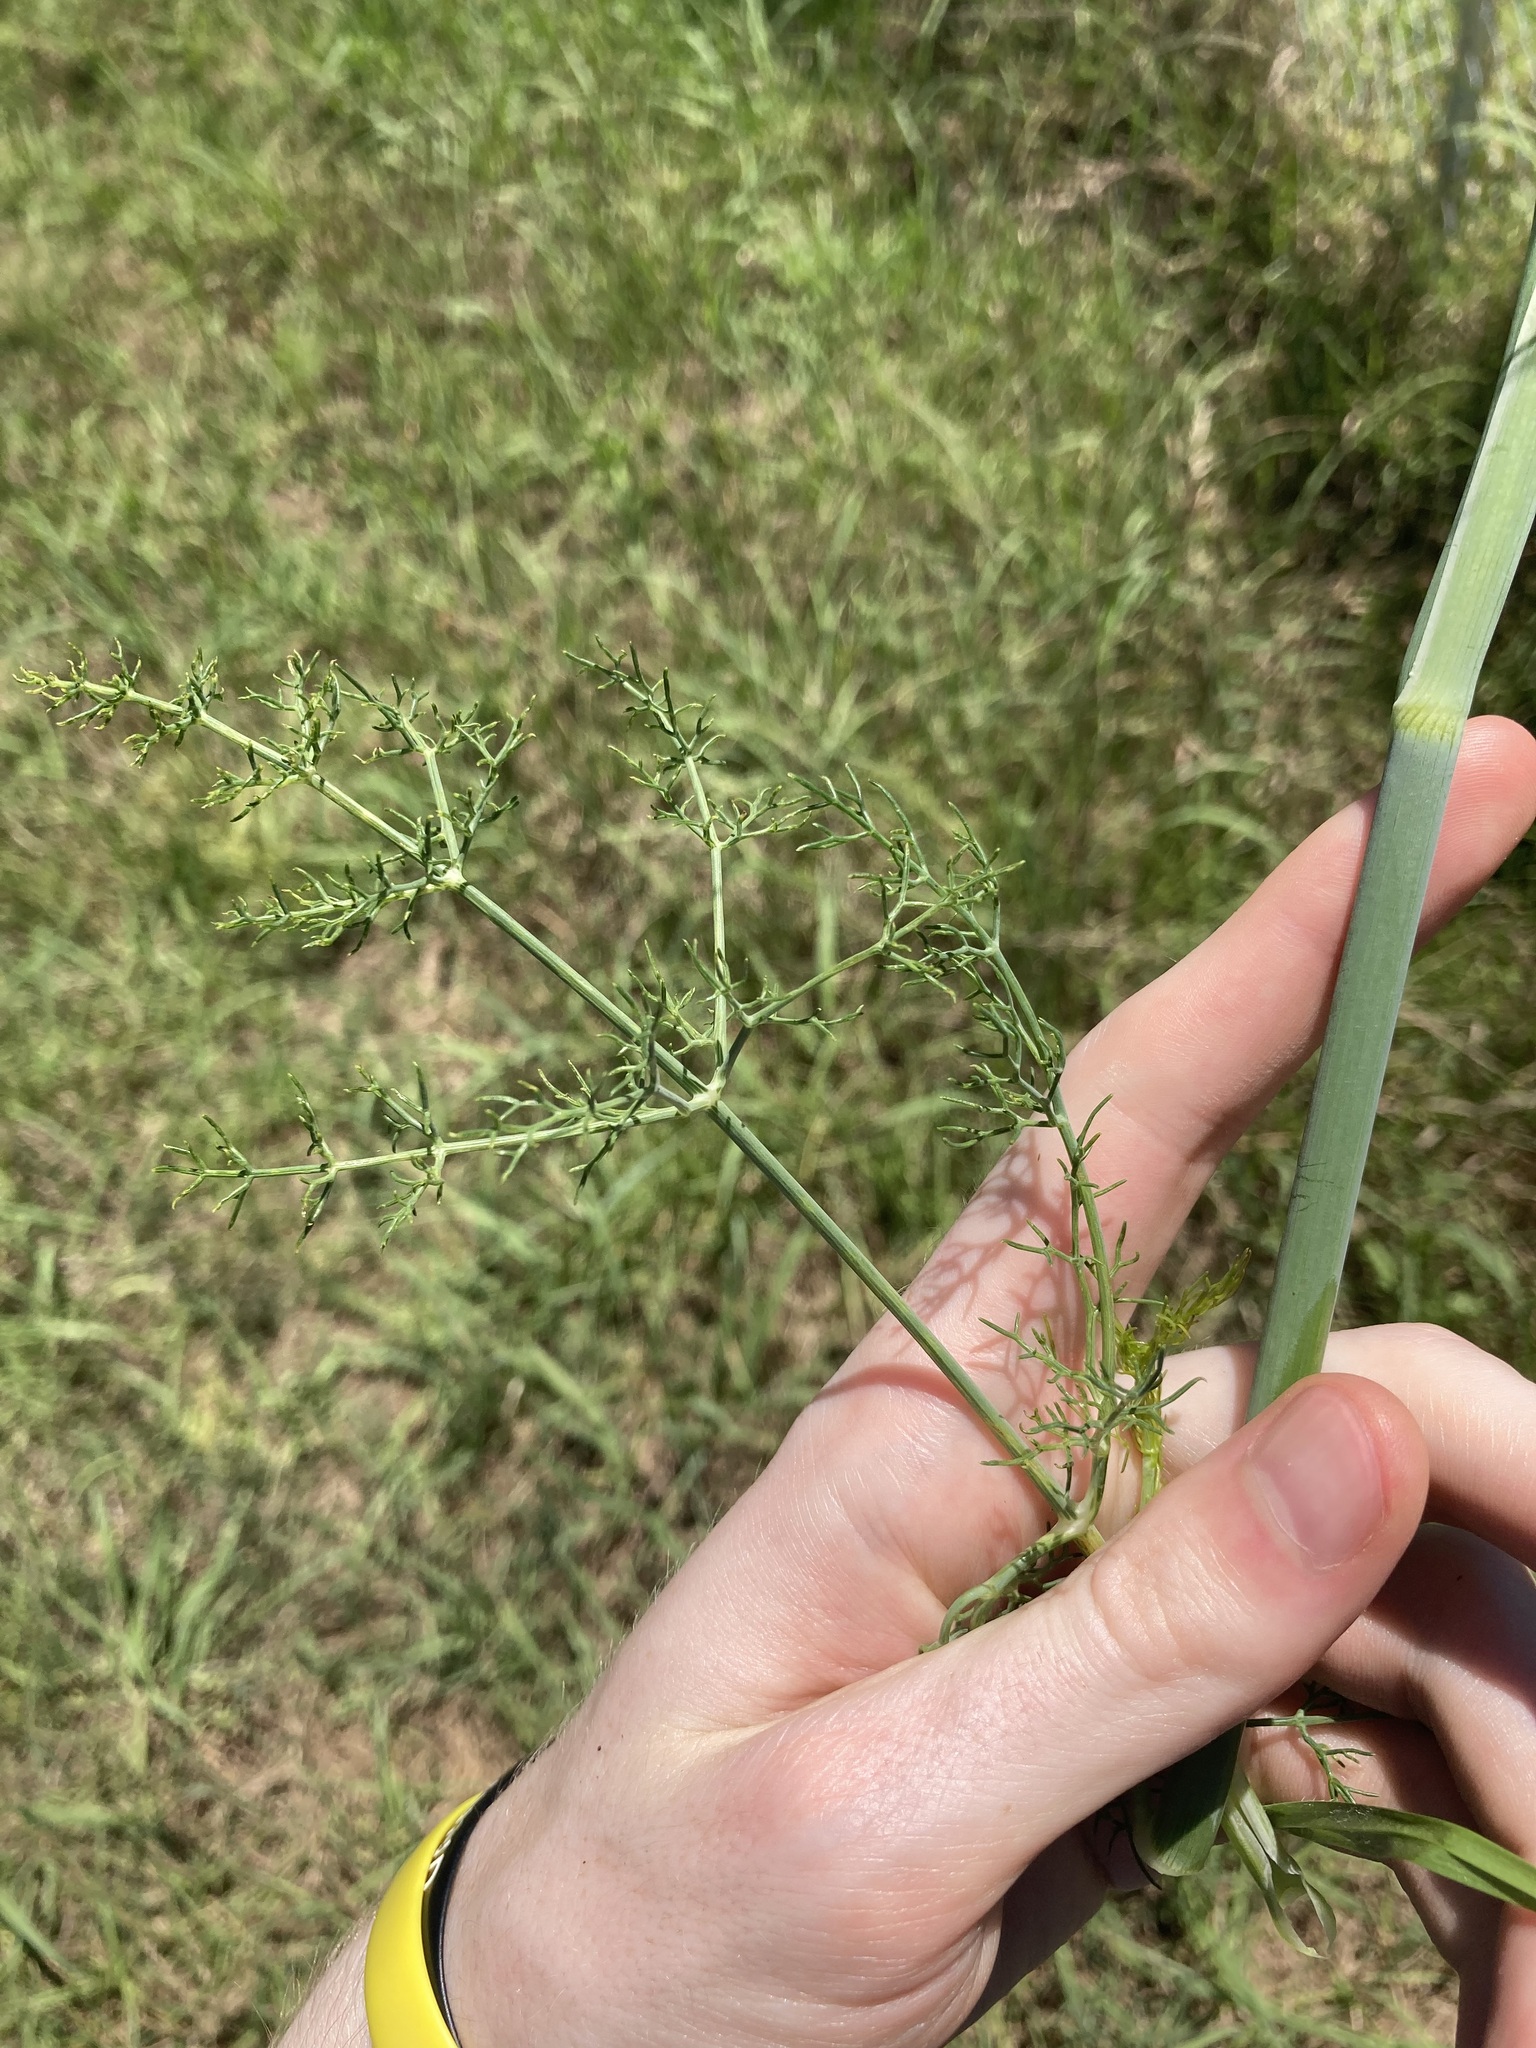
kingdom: Plantae
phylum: Tracheophyta
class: Magnoliopsida
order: Apiales
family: Apiaceae
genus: Foeniculum
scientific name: Foeniculum vulgare
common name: Fennel
